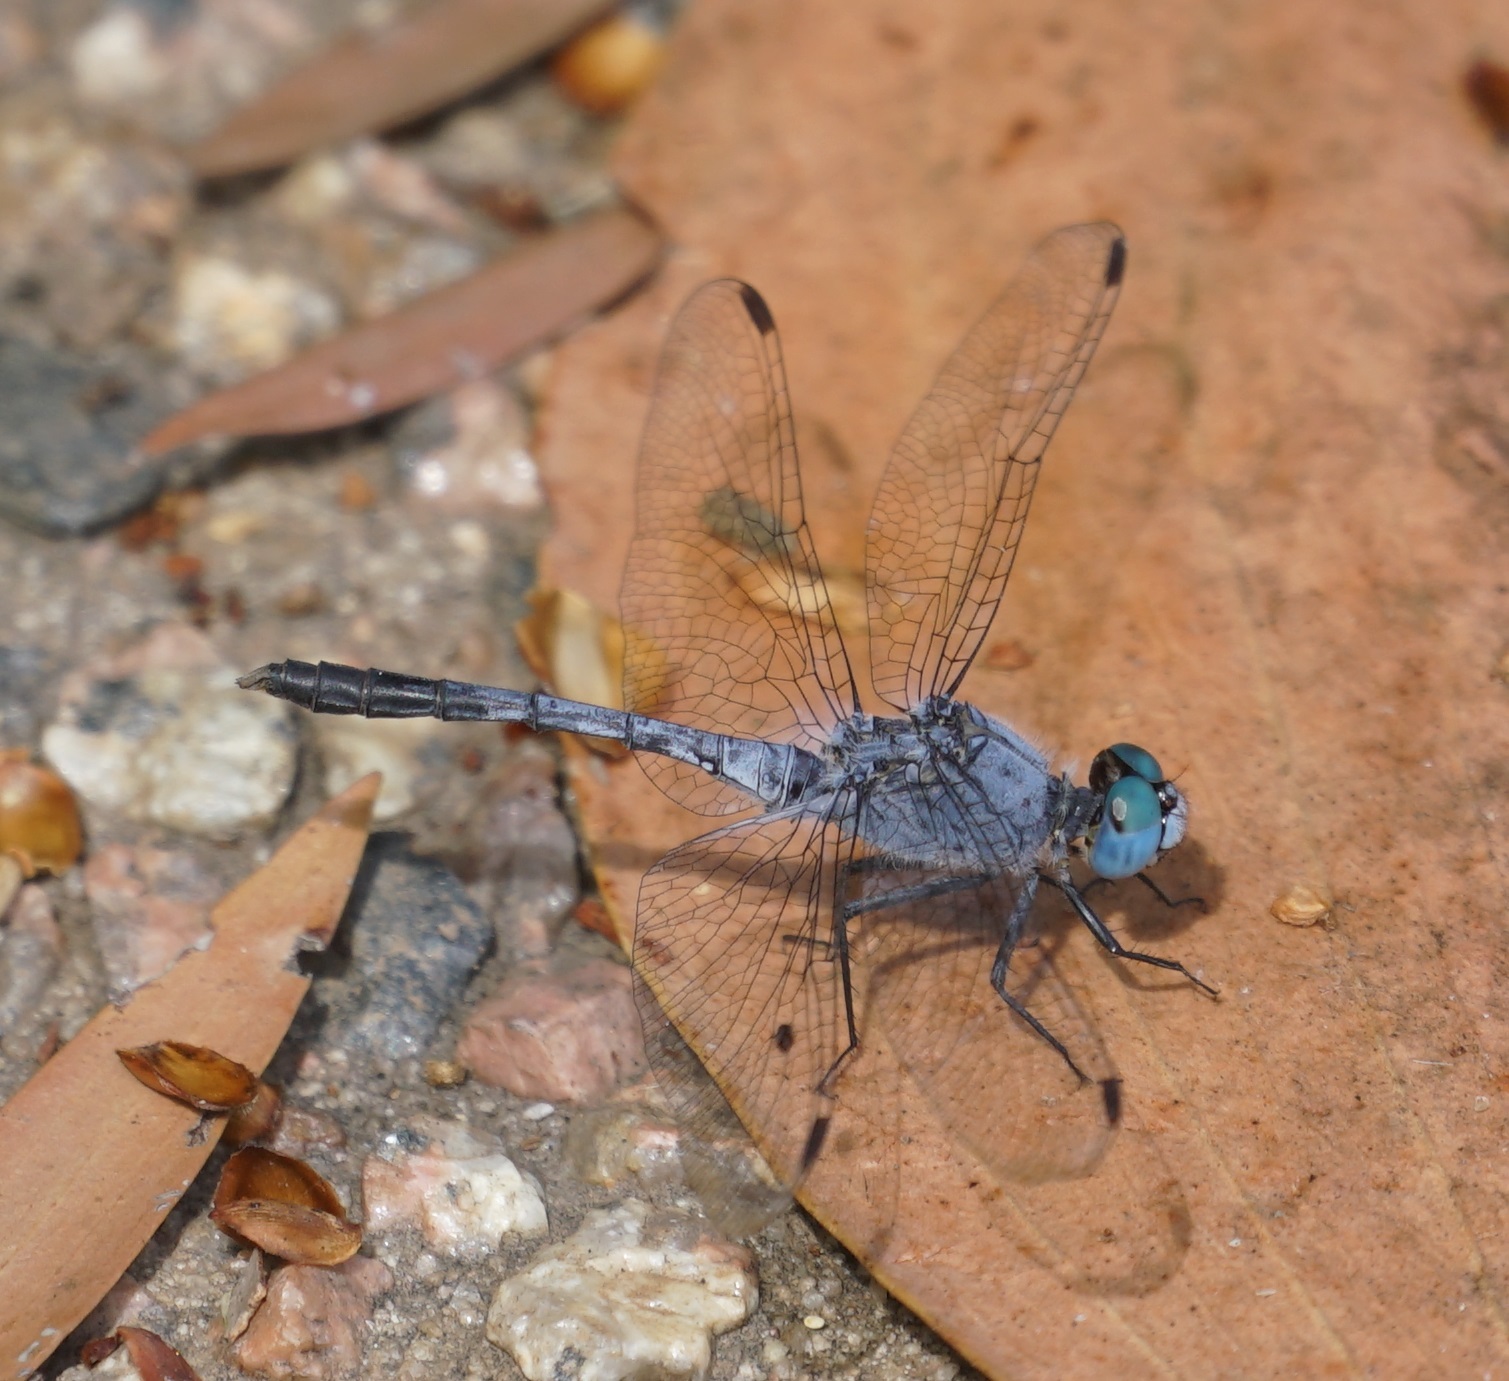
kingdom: Animalia
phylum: Arthropoda
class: Insecta
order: Odonata
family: Libellulidae
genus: Diplacodes
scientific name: Diplacodes trivialis
